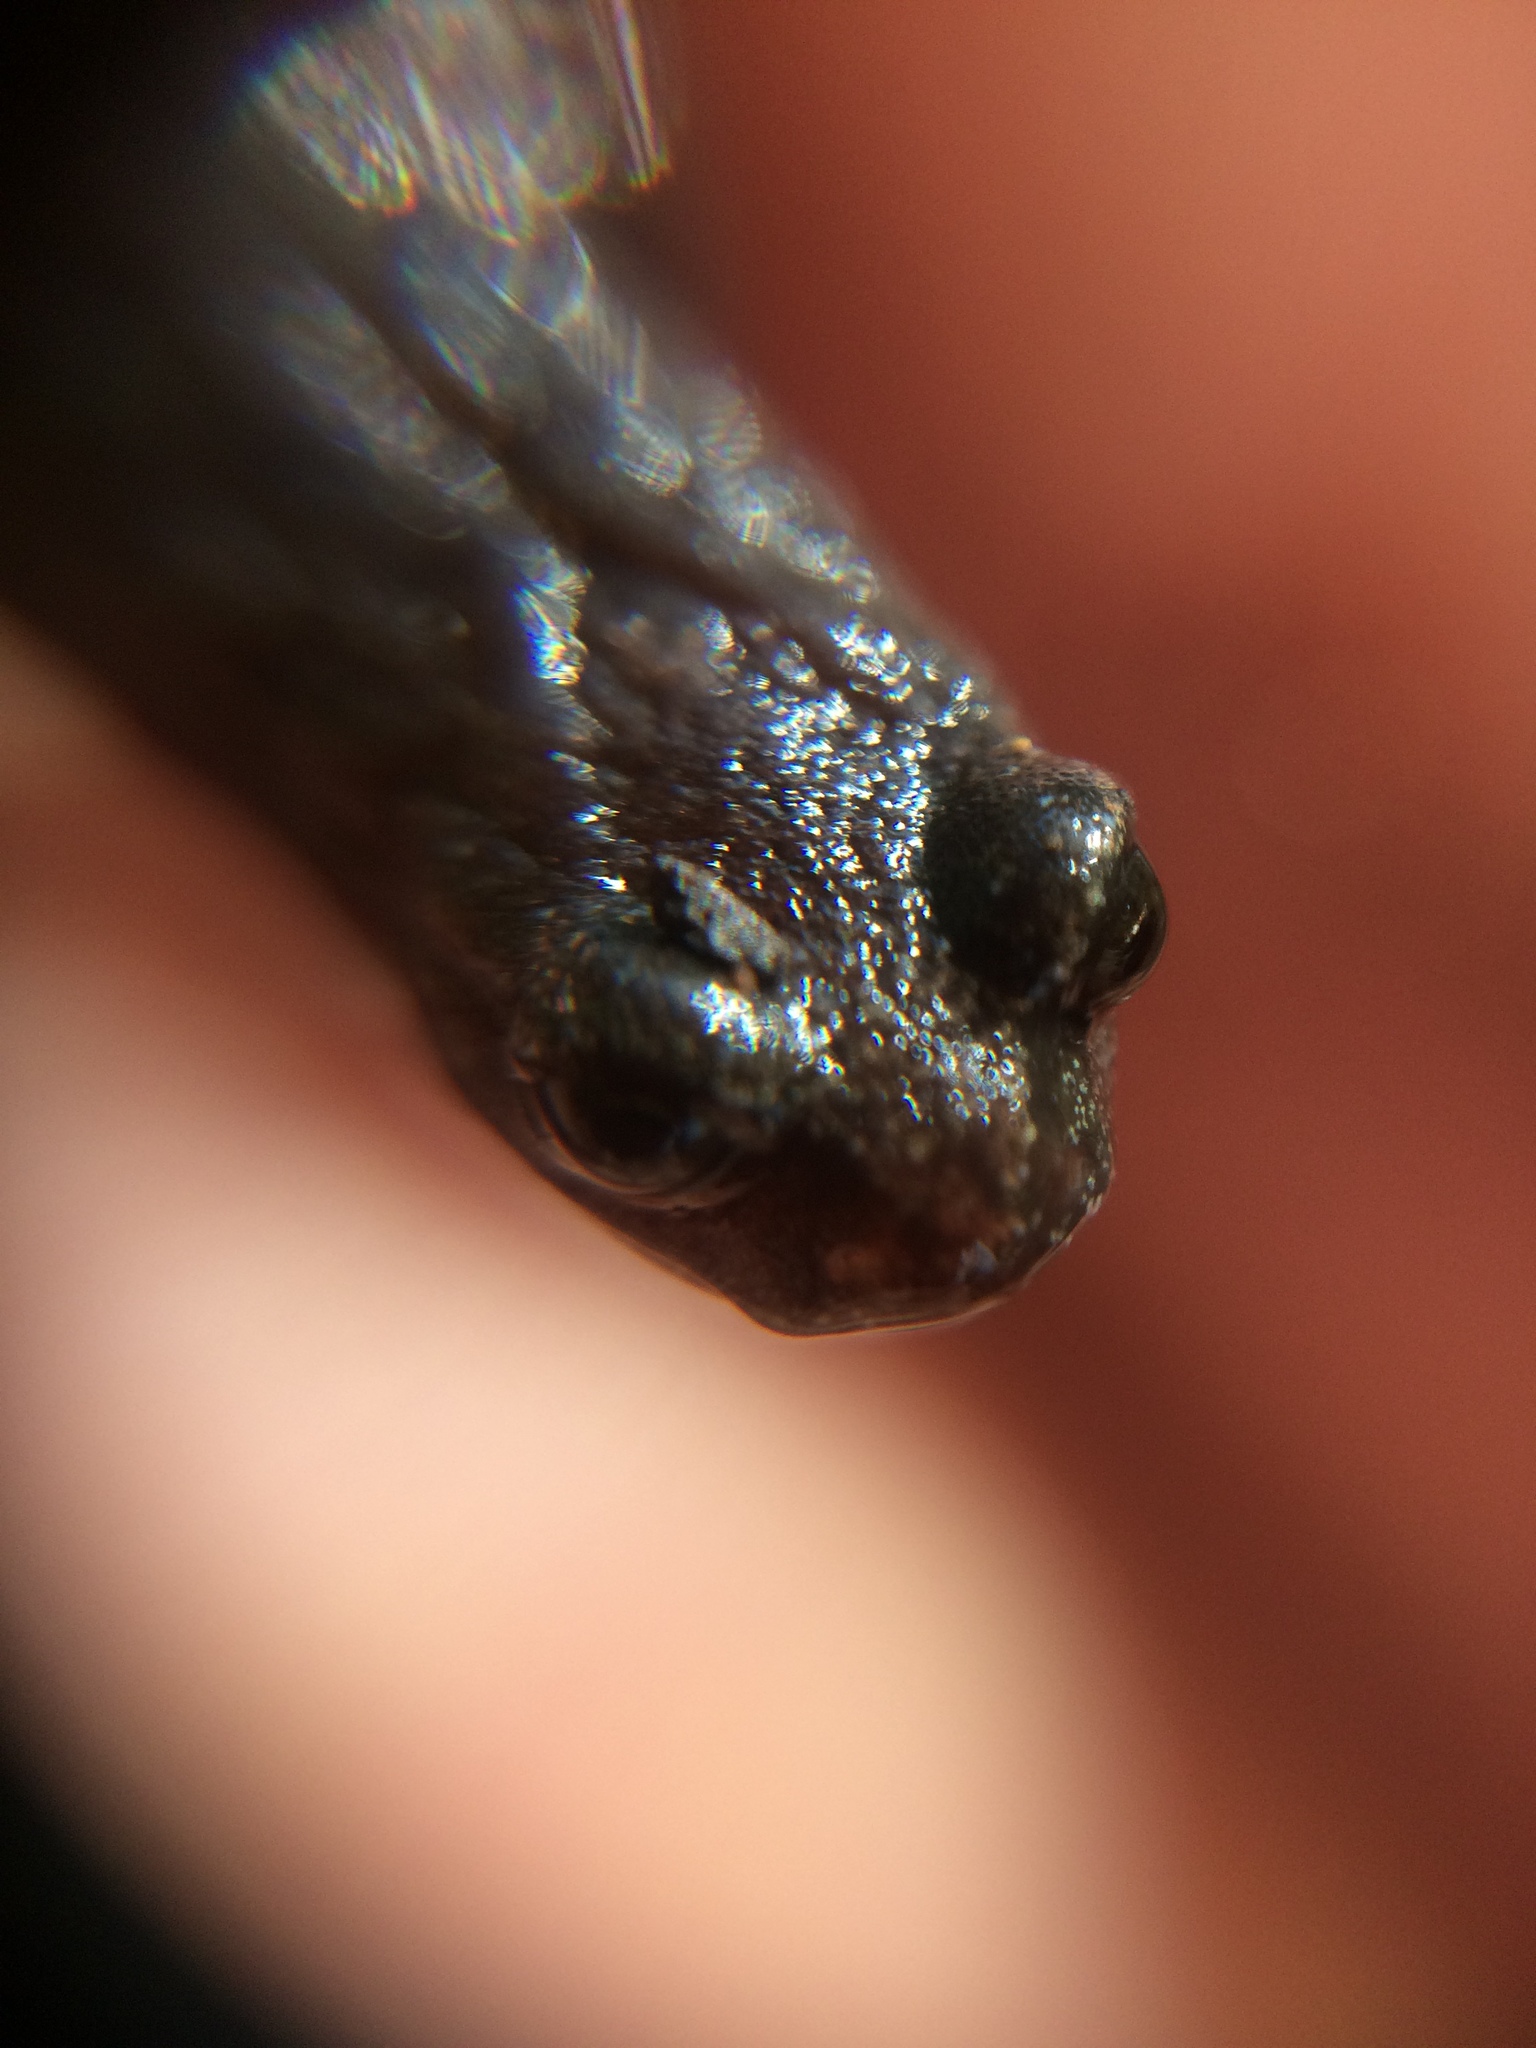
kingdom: Animalia
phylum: Chordata
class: Amphibia
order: Caudata
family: Plethodontidae
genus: Batrachoseps
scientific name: Batrachoseps attenuatus
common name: California slender salamander
